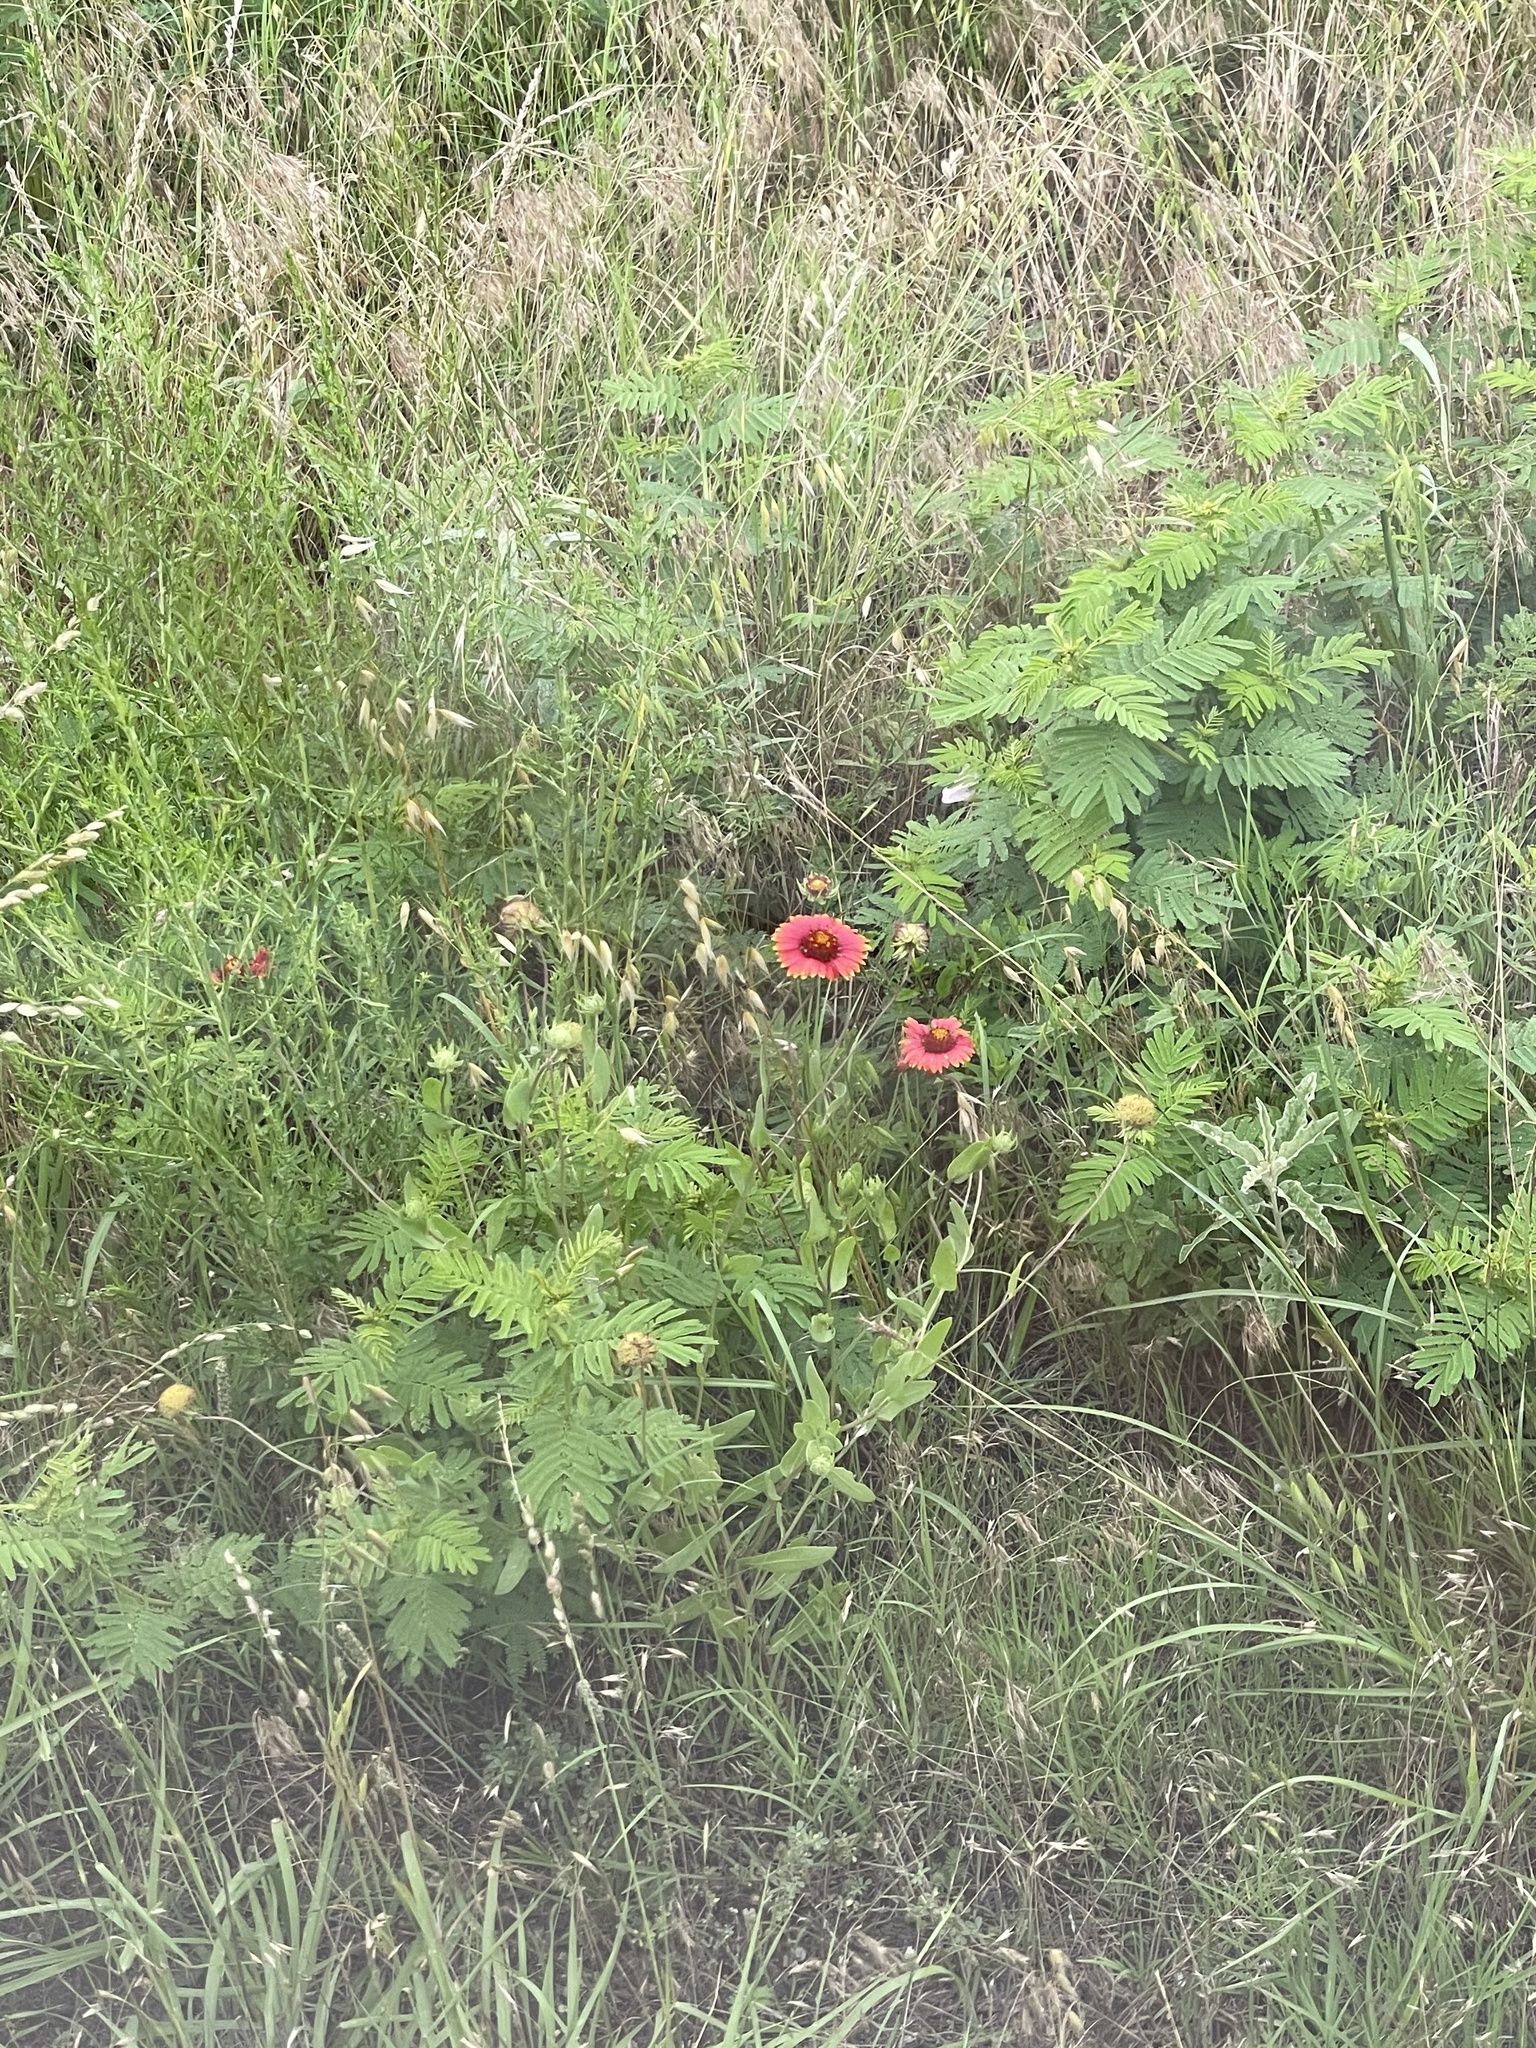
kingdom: Plantae
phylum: Tracheophyta
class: Magnoliopsida
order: Asterales
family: Asteraceae
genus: Gaillardia
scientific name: Gaillardia pulchella
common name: Firewheel
